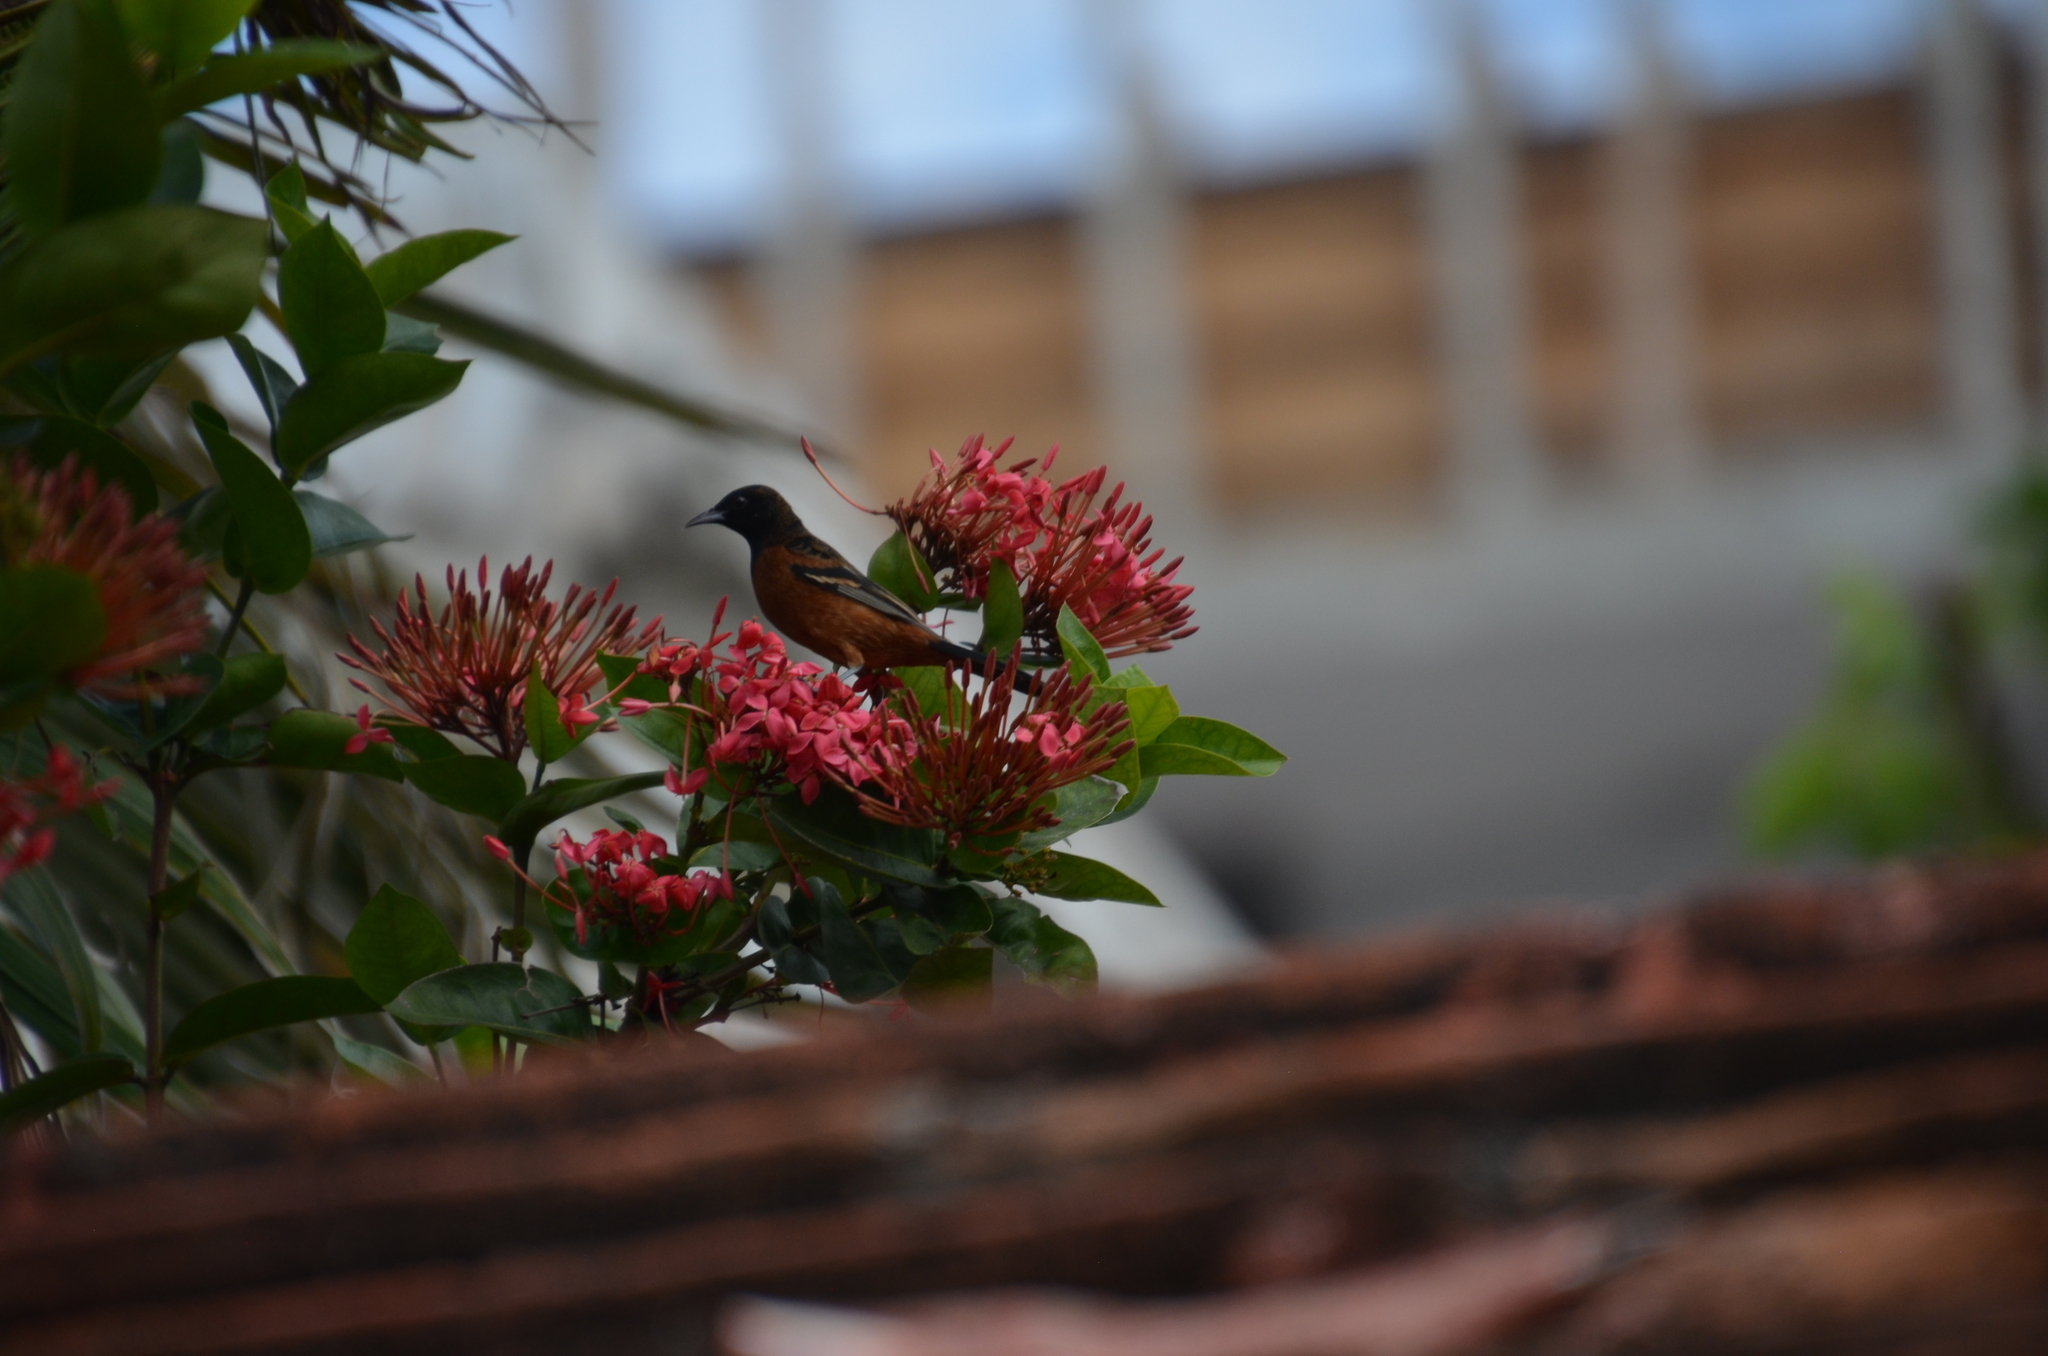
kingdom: Animalia
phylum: Chordata
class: Aves
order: Passeriformes
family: Icteridae
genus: Icterus
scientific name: Icterus spurius
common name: Orchard oriole
